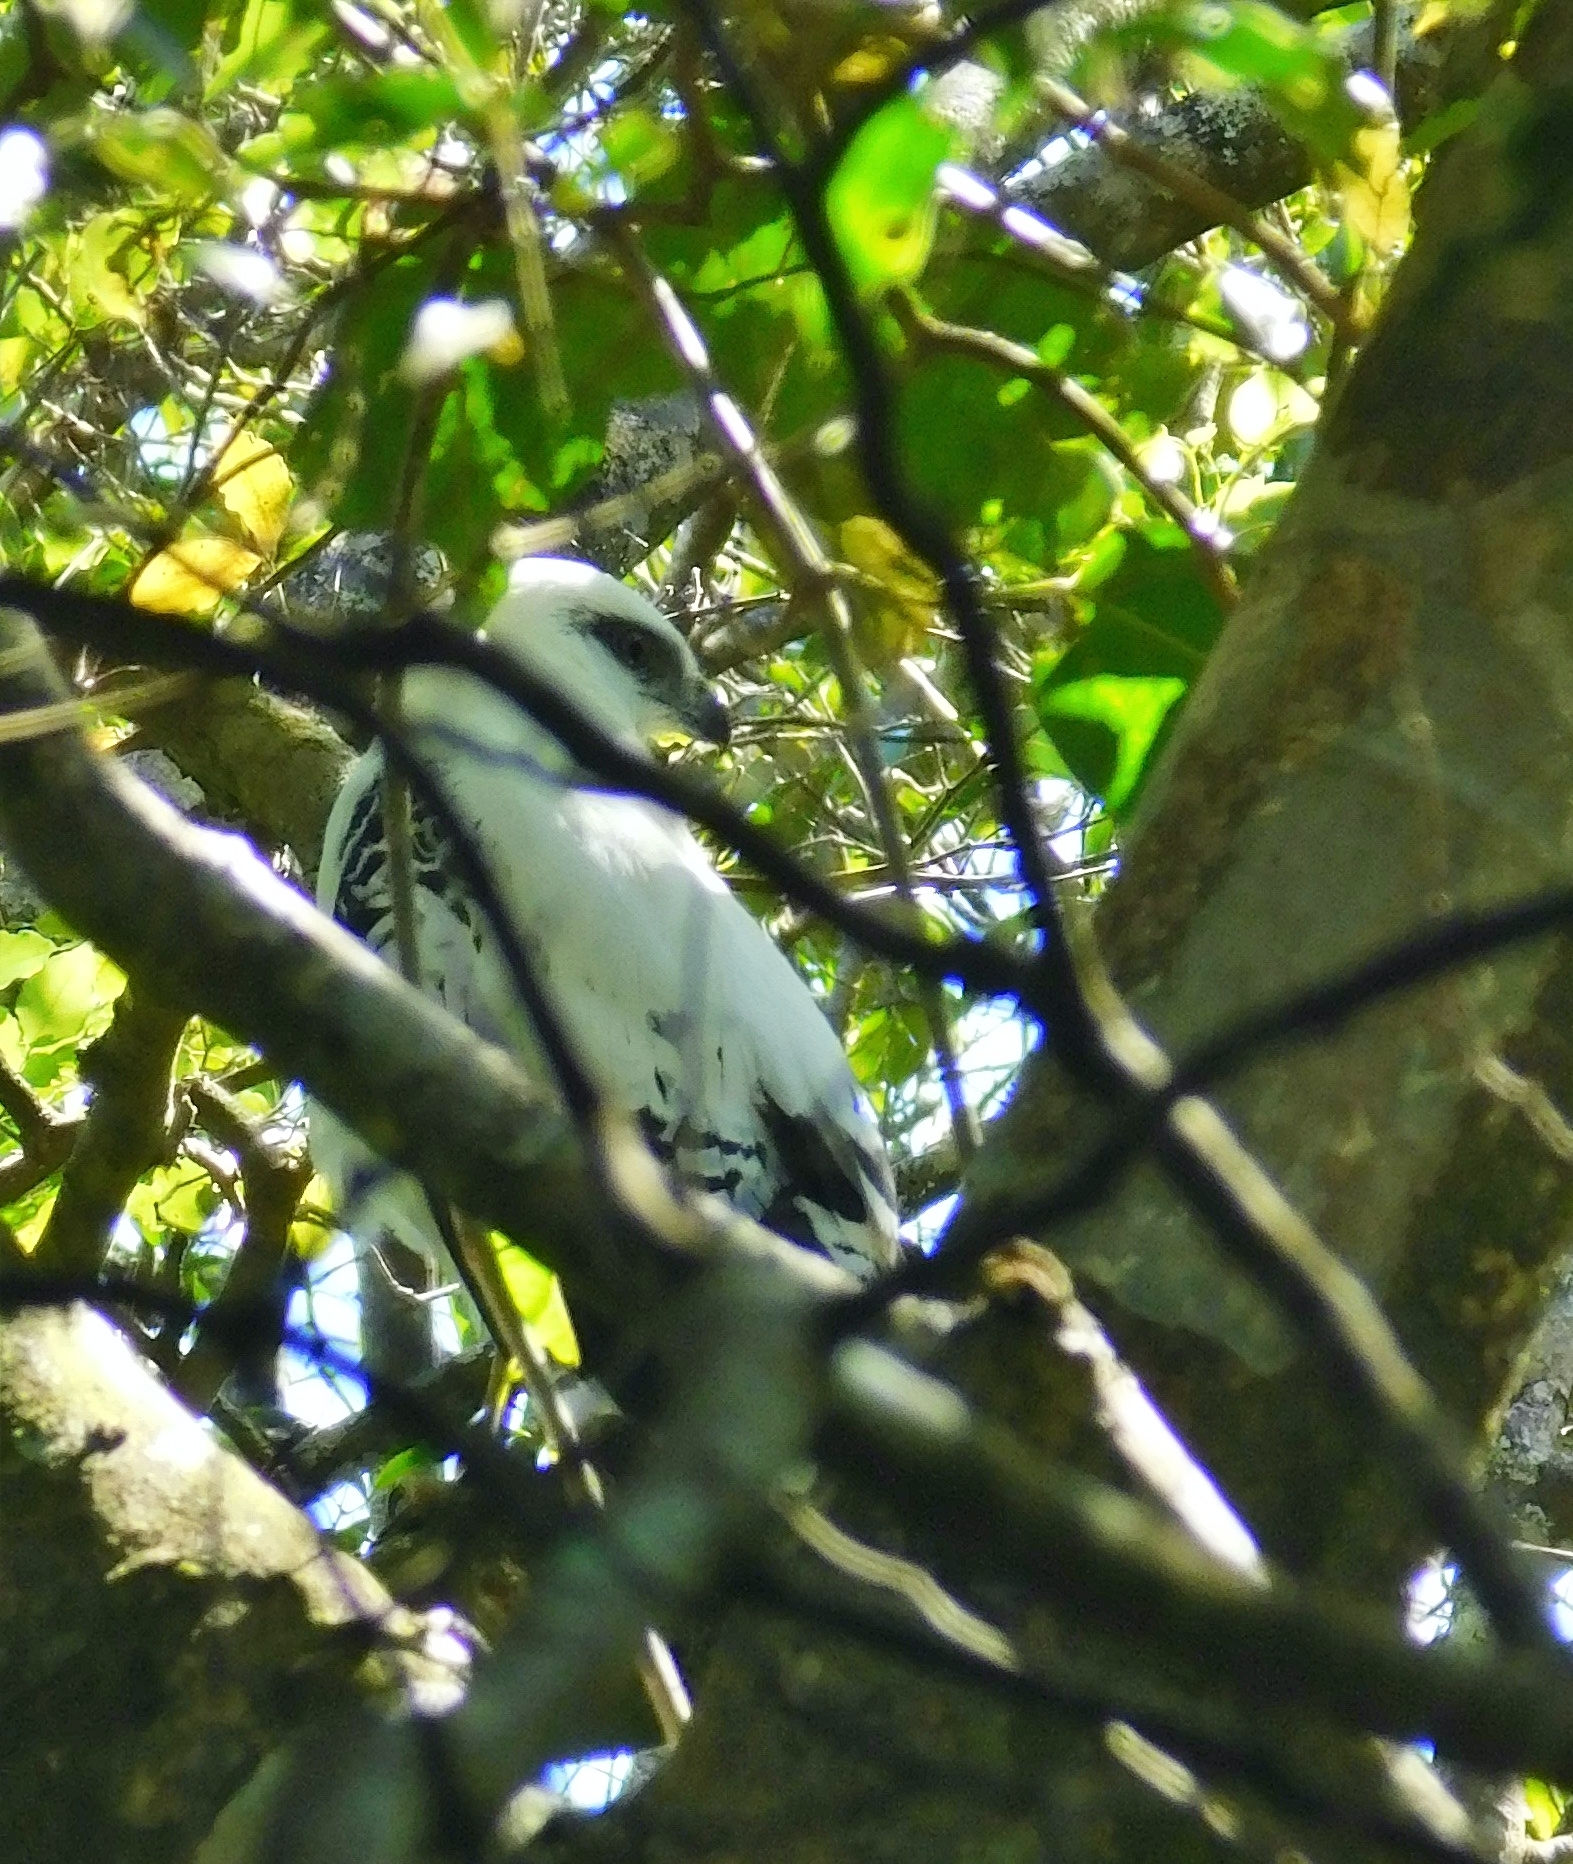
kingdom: Animalia
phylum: Chordata
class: Aves
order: Accipitriformes
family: Accipitridae
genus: Leucopternis
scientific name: Leucopternis albicollis
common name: White hawk
